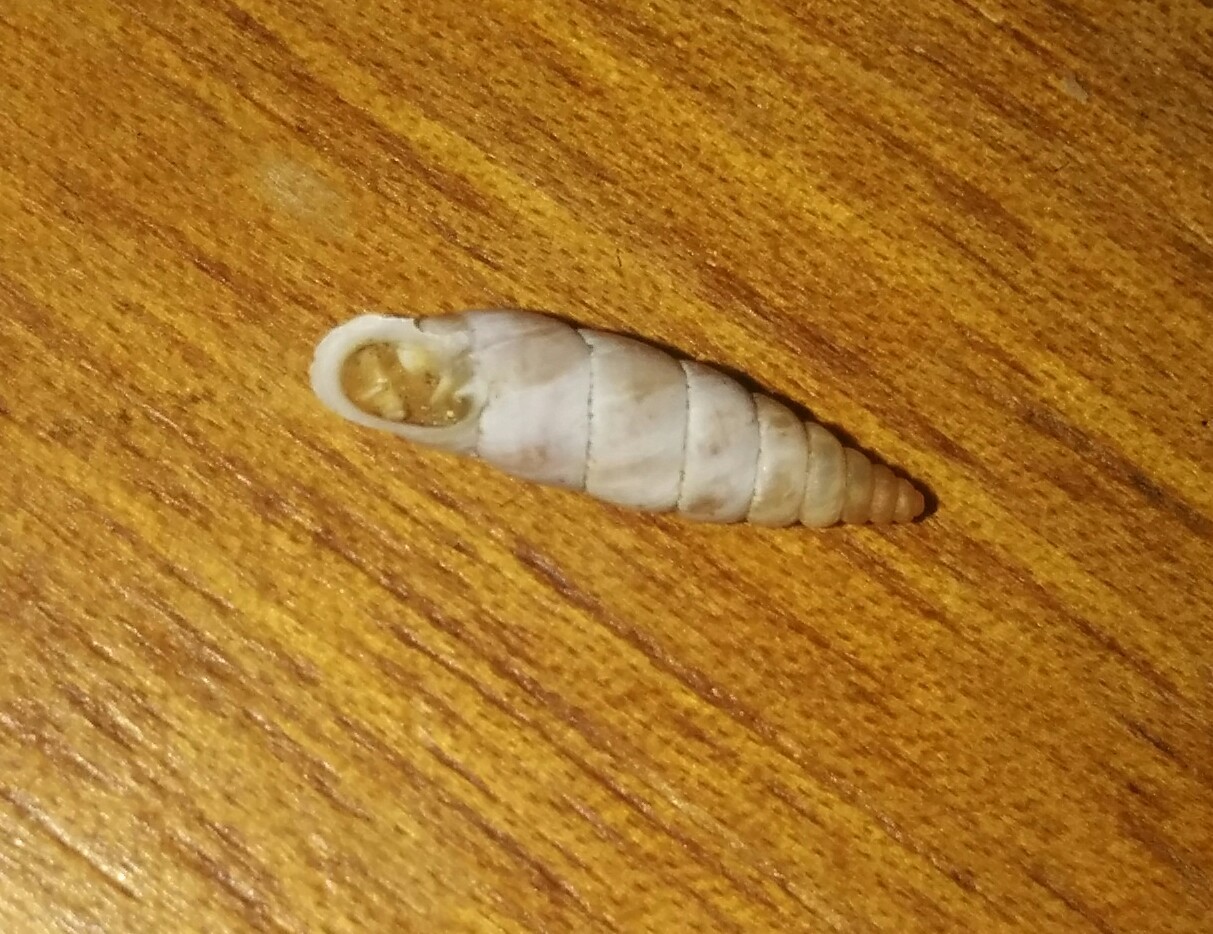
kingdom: Animalia
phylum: Mollusca
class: Gastropoda
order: Stylommatophora
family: Chondrinidae
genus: Solatopupa
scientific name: Solatopupa similis
